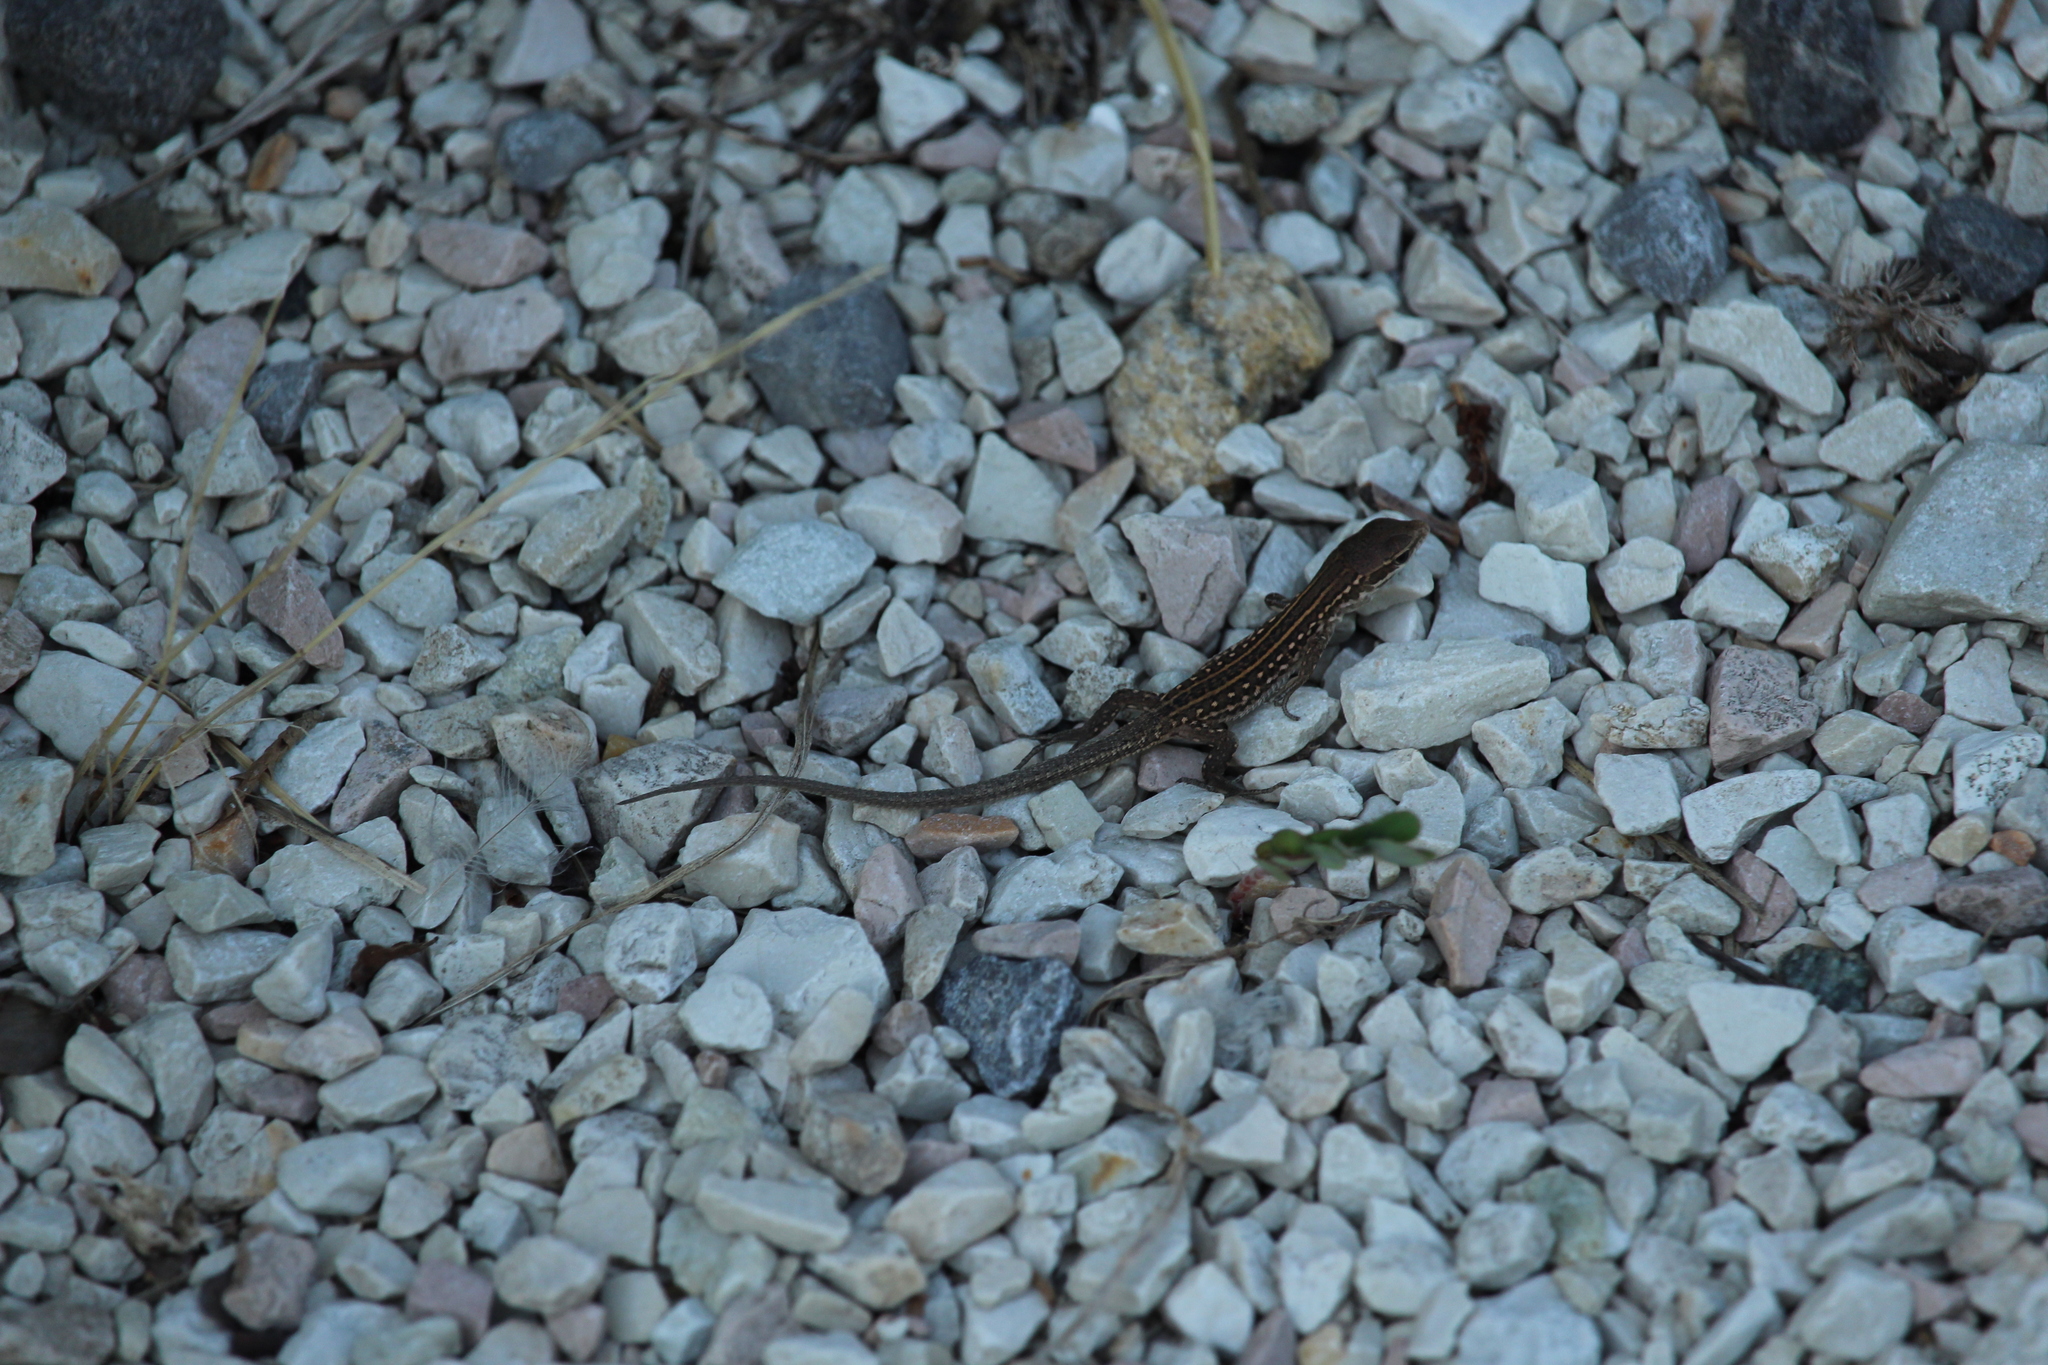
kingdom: Animalia
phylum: Chordata
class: Squamata
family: Lacertidae
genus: Podarcis
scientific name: Podarcis siculus
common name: Italian wall lizard
